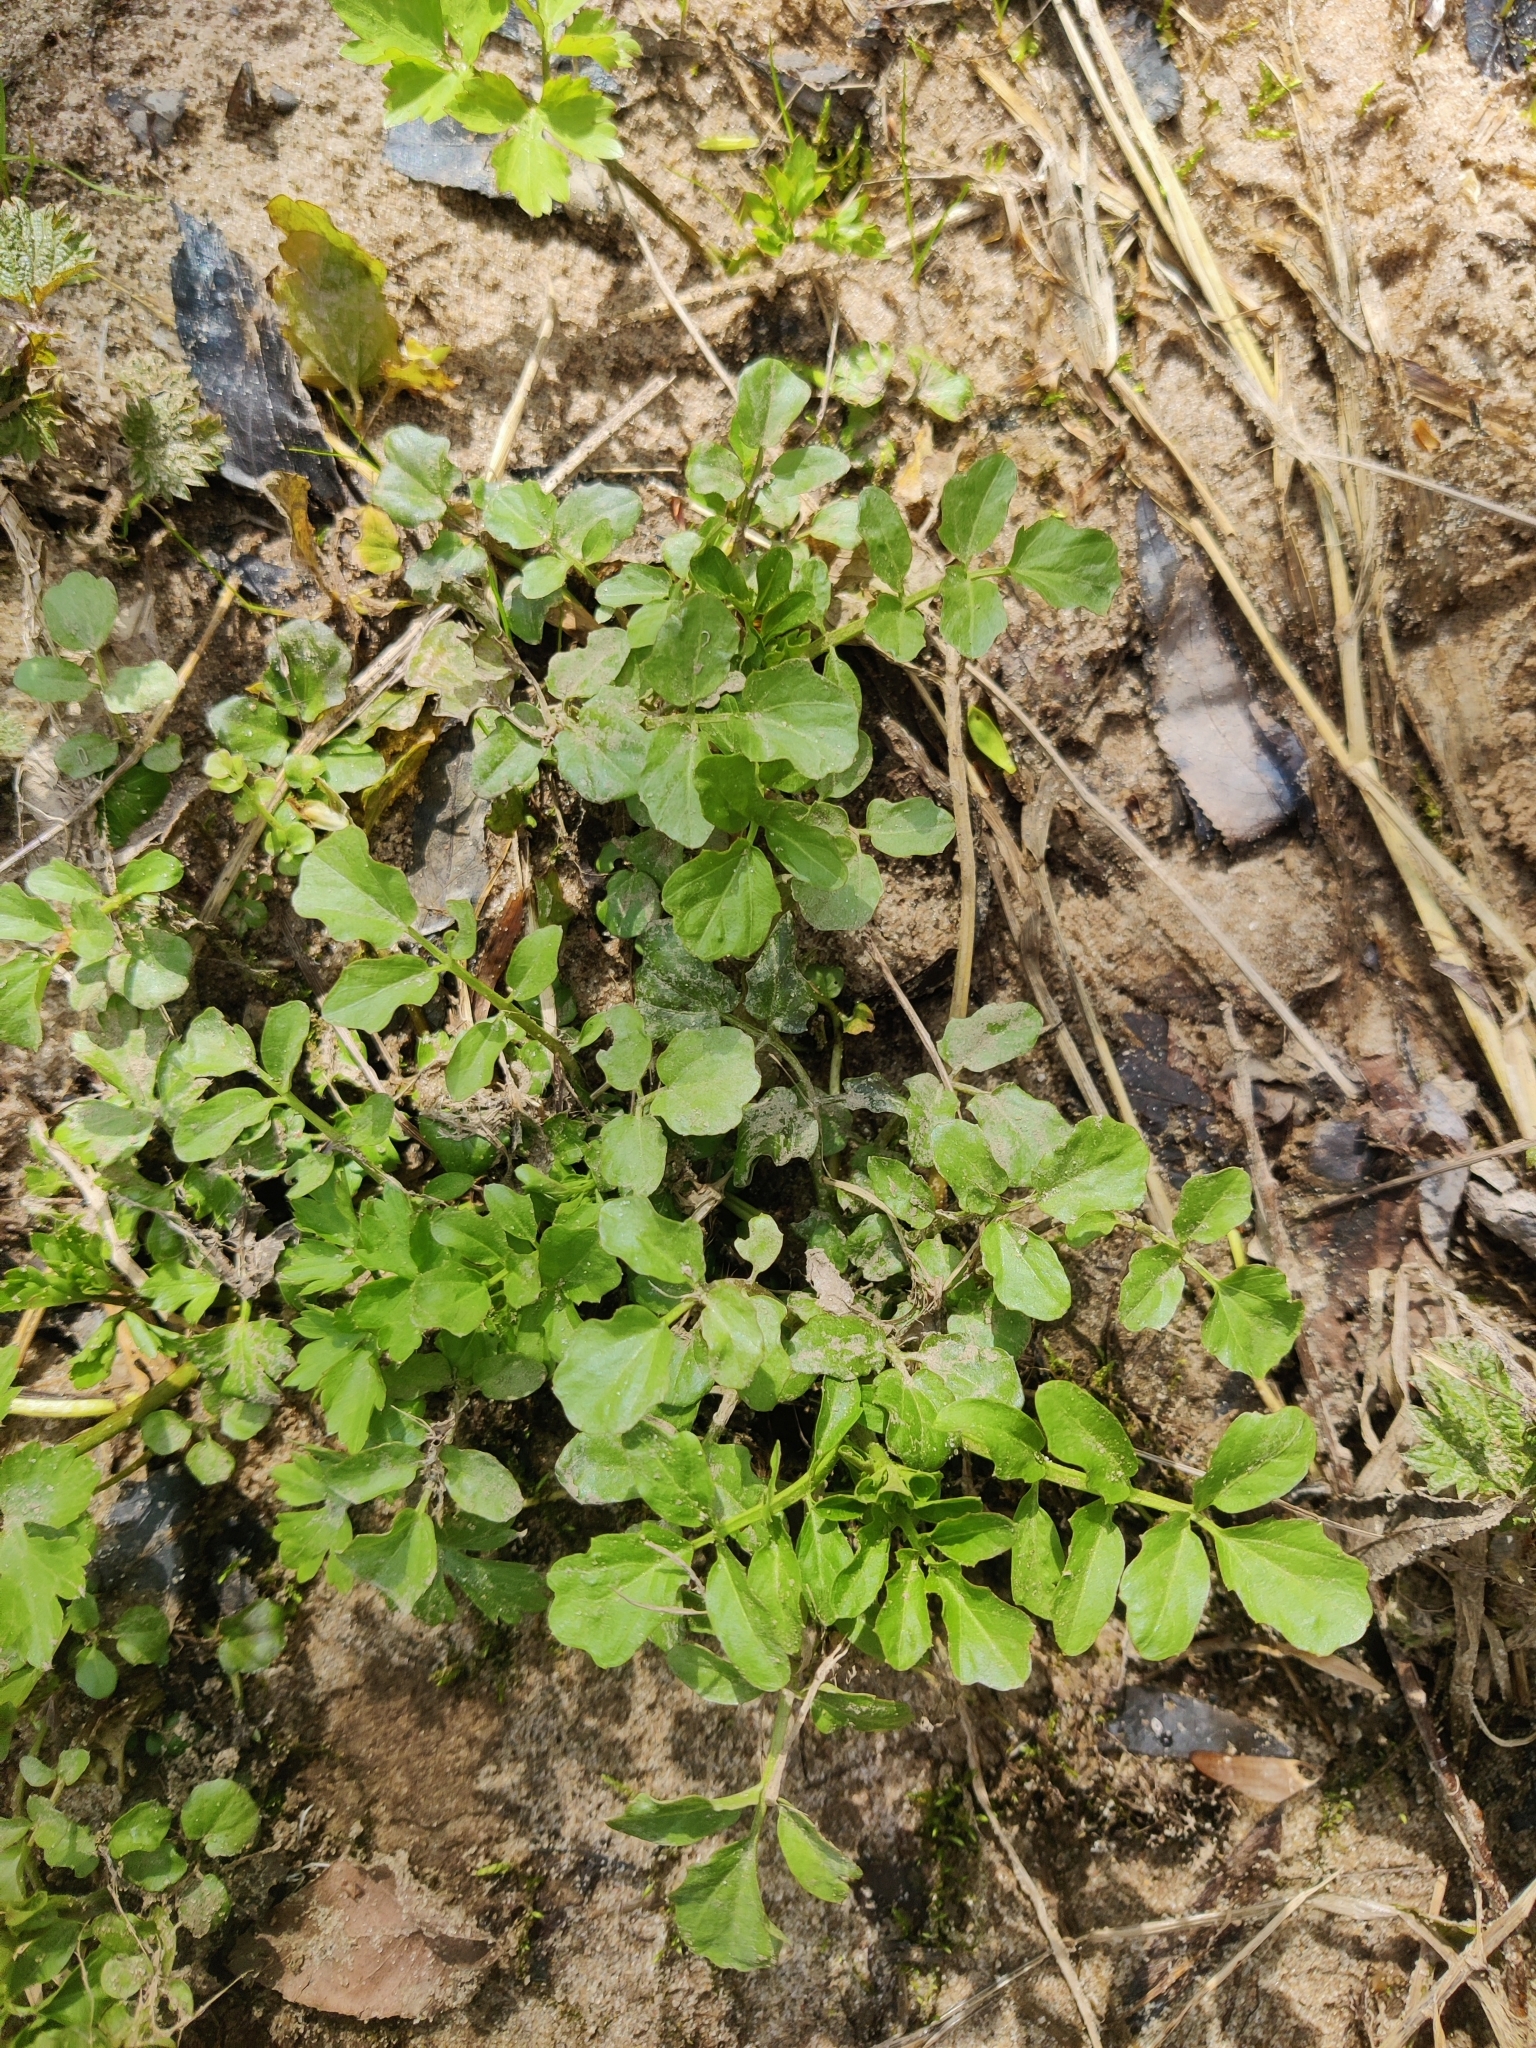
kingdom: Plantae
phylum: Tracheophyta
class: Magnoliopsida
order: Brassicales
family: Brassicaceae
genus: Cardamine
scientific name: Cardamine amara
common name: Large bitter-cress
